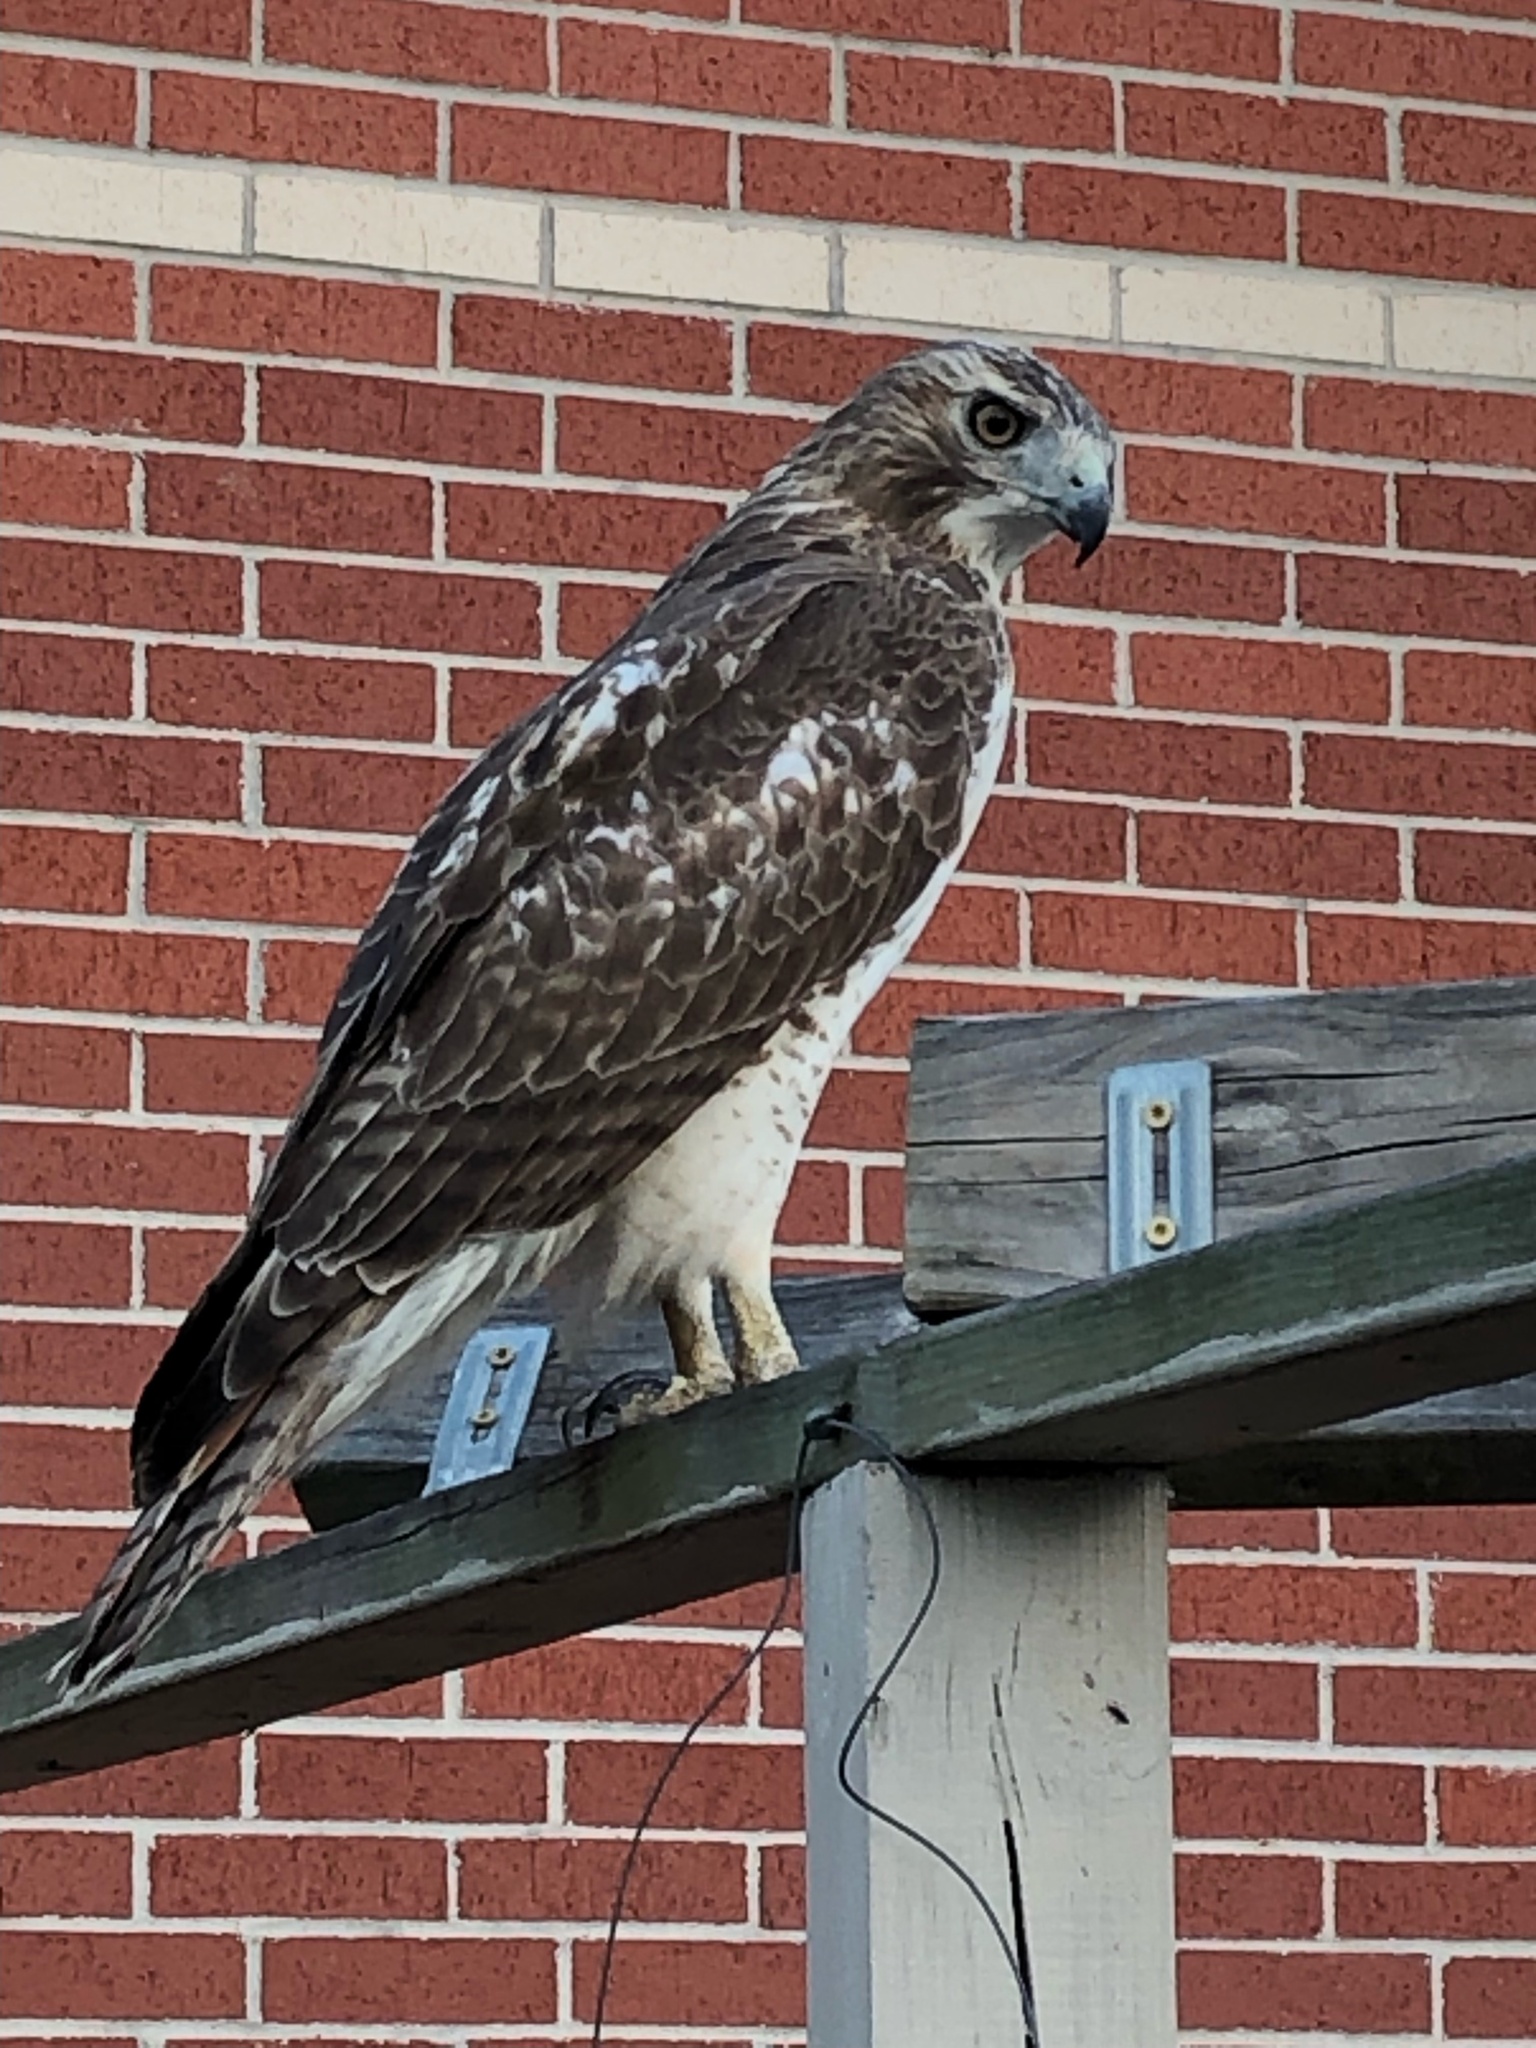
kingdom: Animalia
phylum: Chordata
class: Aves
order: Accipitriformes
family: Accipitridae
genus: Buteo
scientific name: Buteo jamaicensis
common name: Red-tailed hawk
